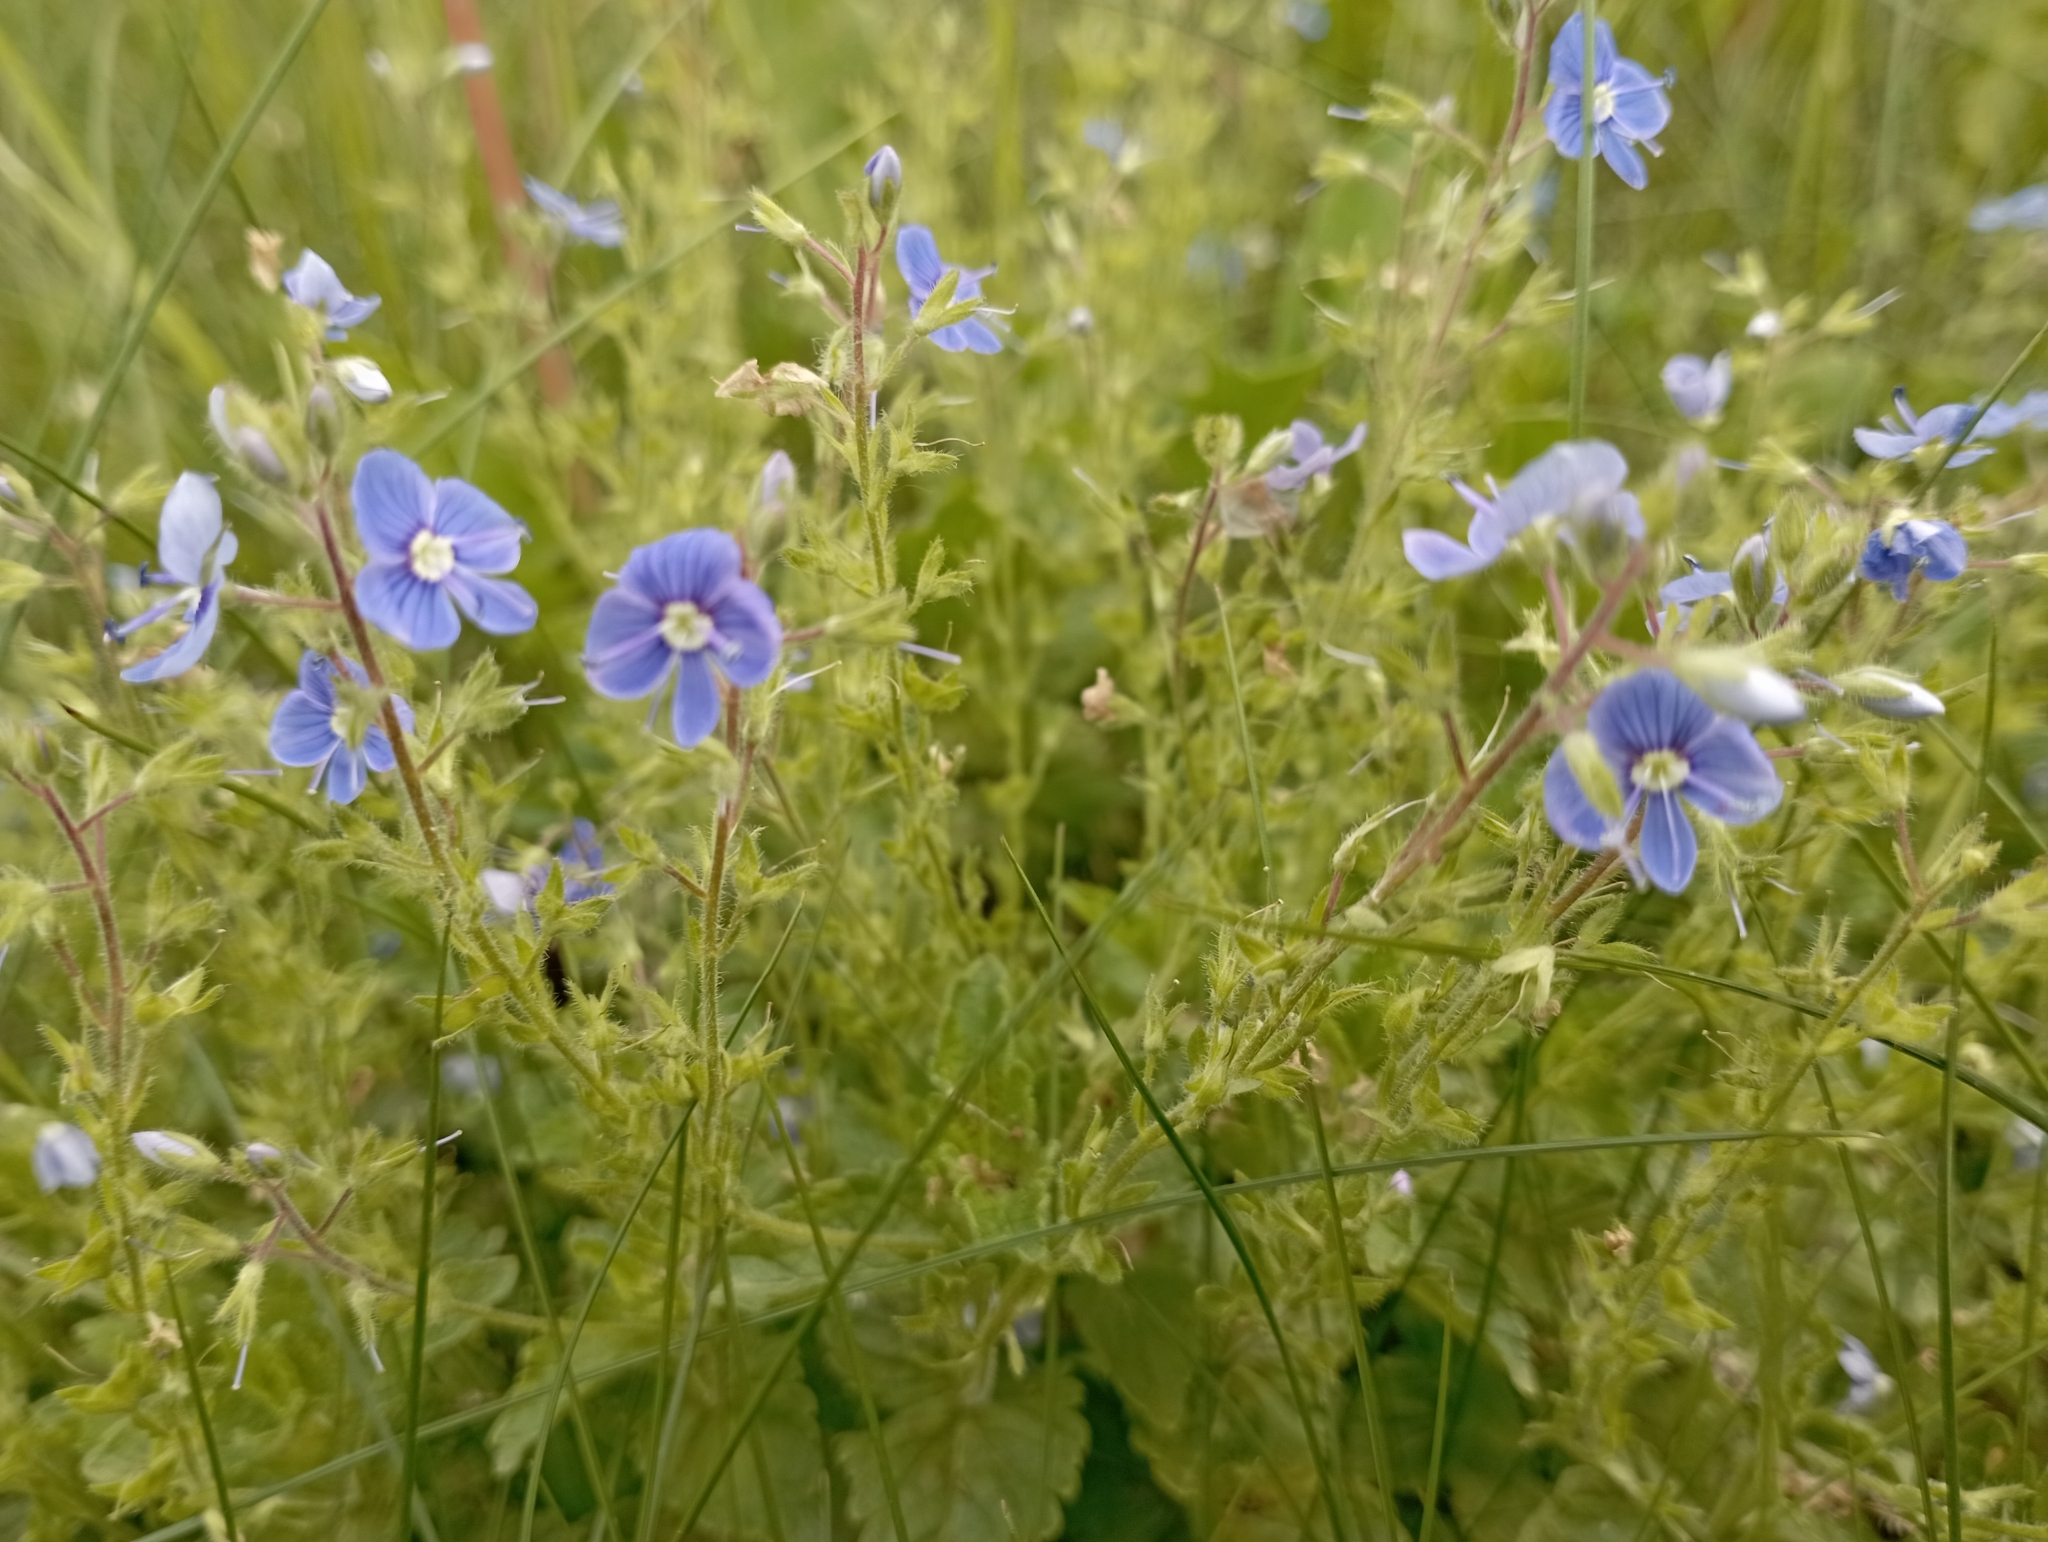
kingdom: Plantae
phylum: Tracheophyta
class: Magnoliopsida
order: Lamiales
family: Plantaginaceae
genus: Veronica
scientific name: Veronica chamaedrys
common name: Germander speedwell
